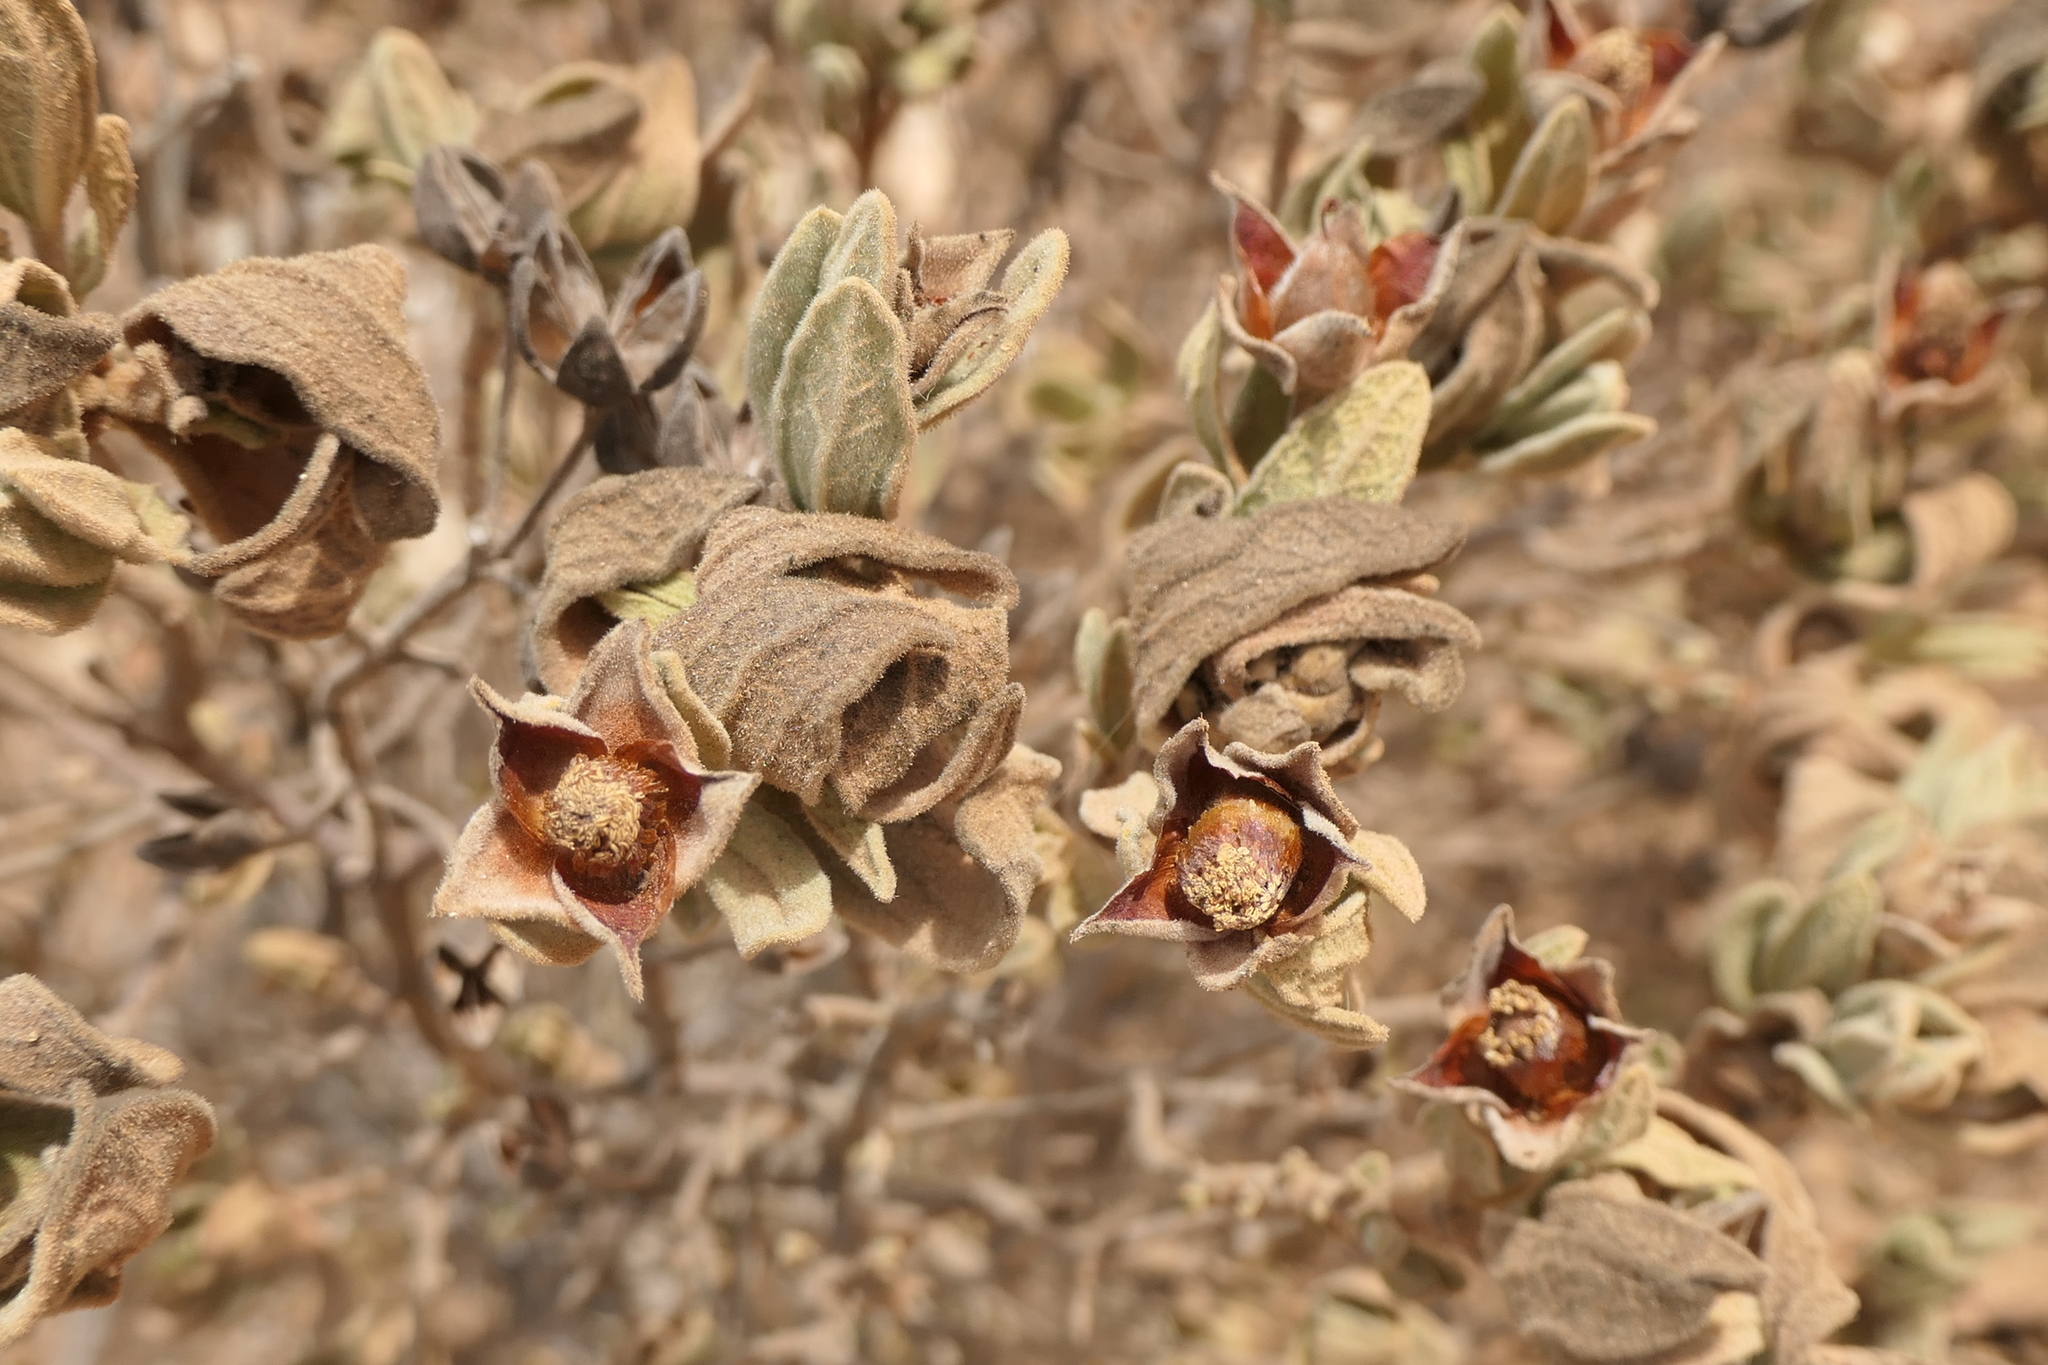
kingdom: Plantae
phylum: Tracheophyta
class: Magnoliopsida
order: Malvales
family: Cistaceae
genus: Cistus
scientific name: Cistus albidus
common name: White-leaf rock-rose
